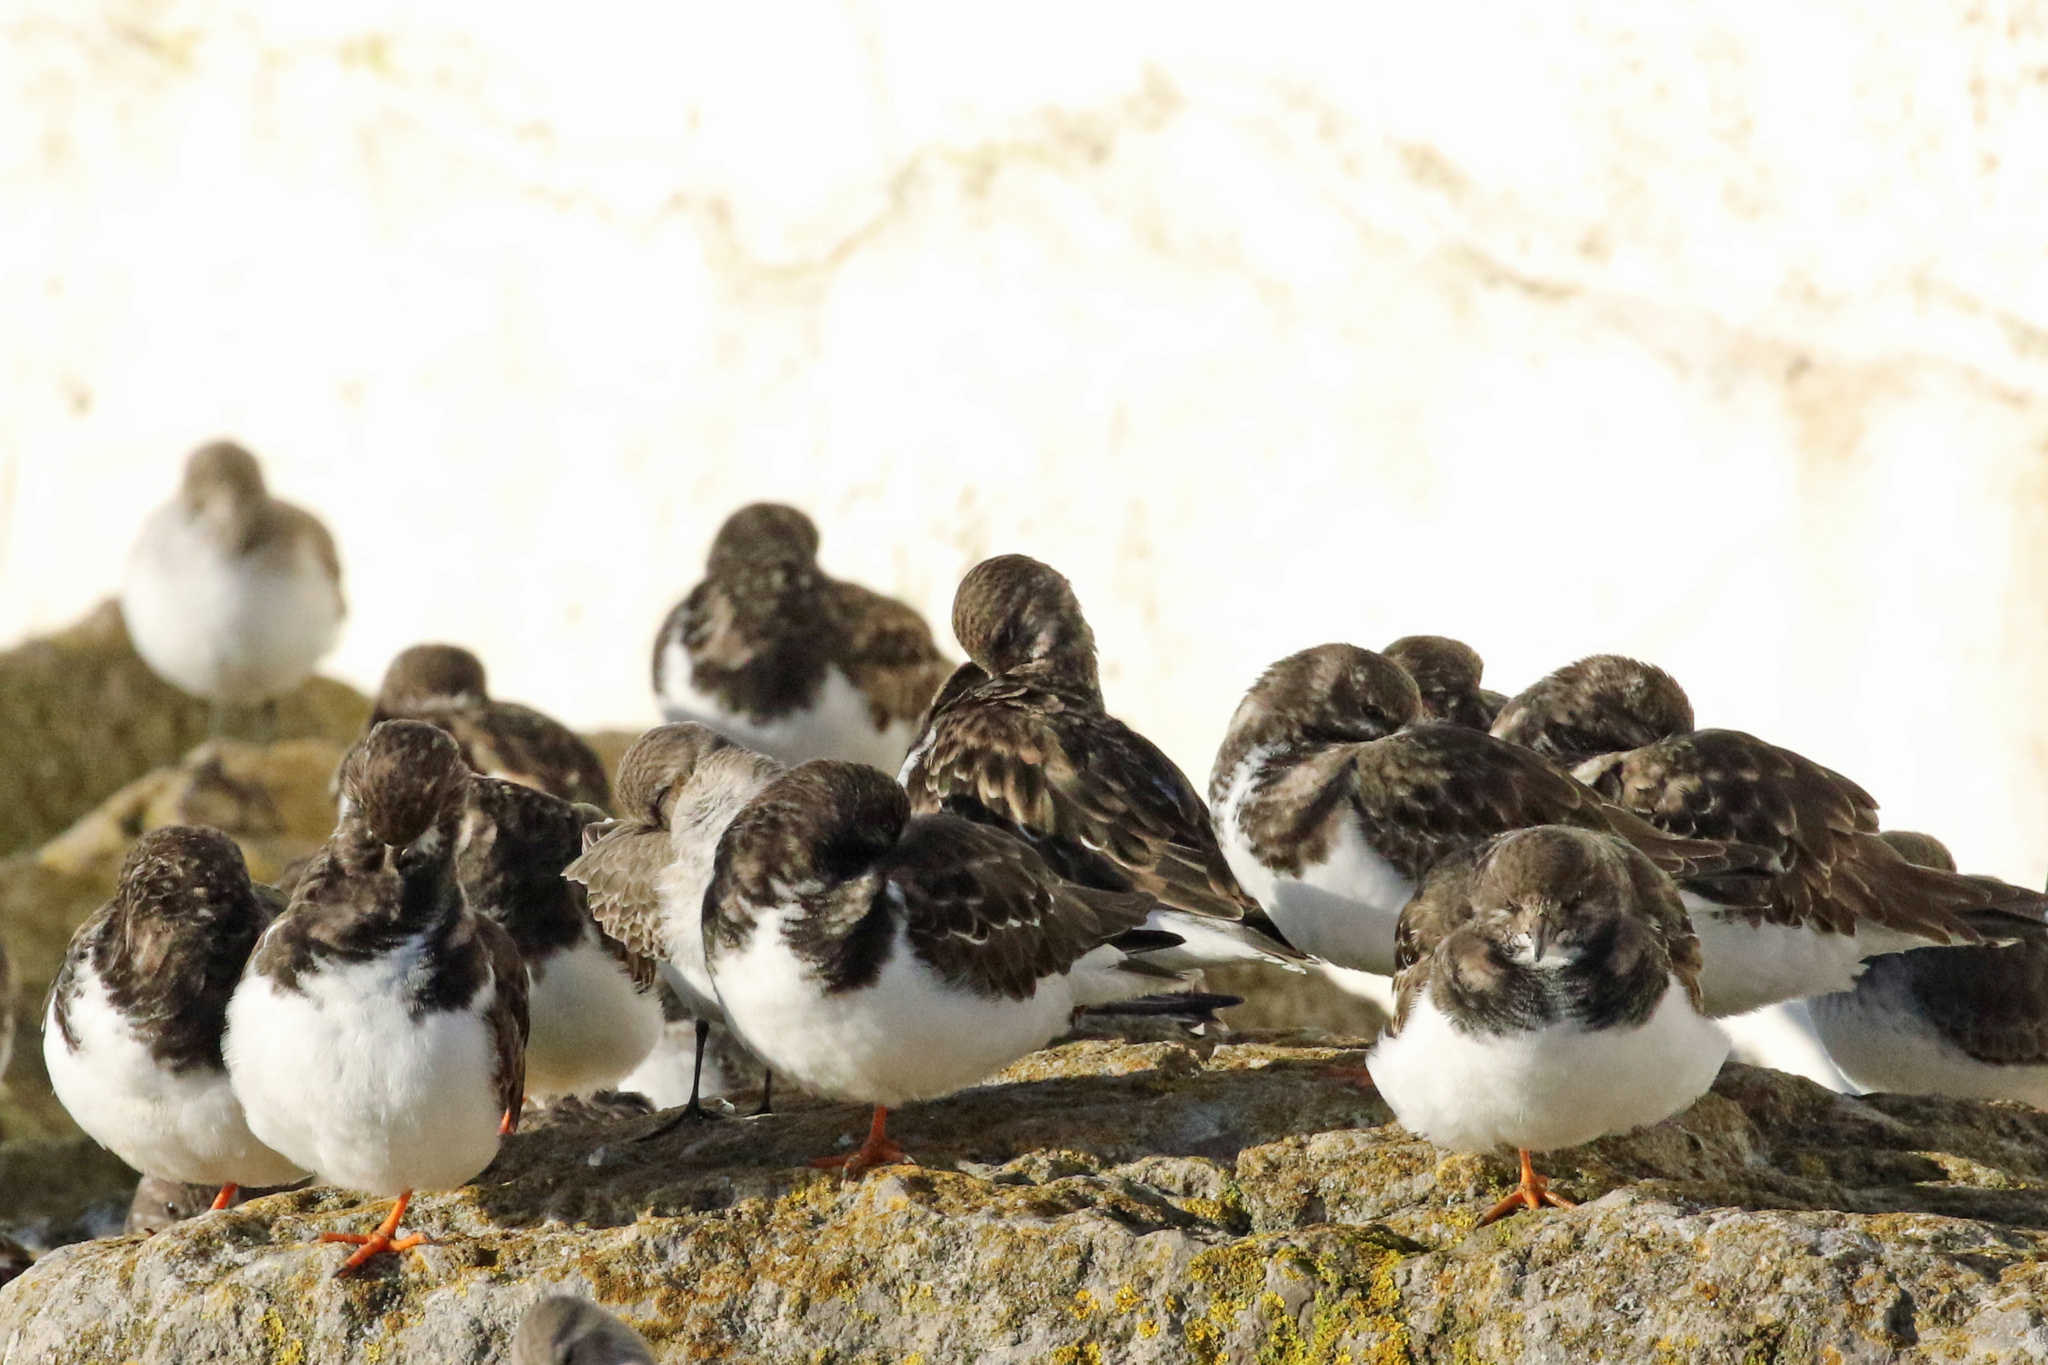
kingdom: Animalia
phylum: Chordata
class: Aves
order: Charadriiformes
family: Scolopacidae
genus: Arenaria
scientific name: Arenaria interpres
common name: Ruddy turnstone
